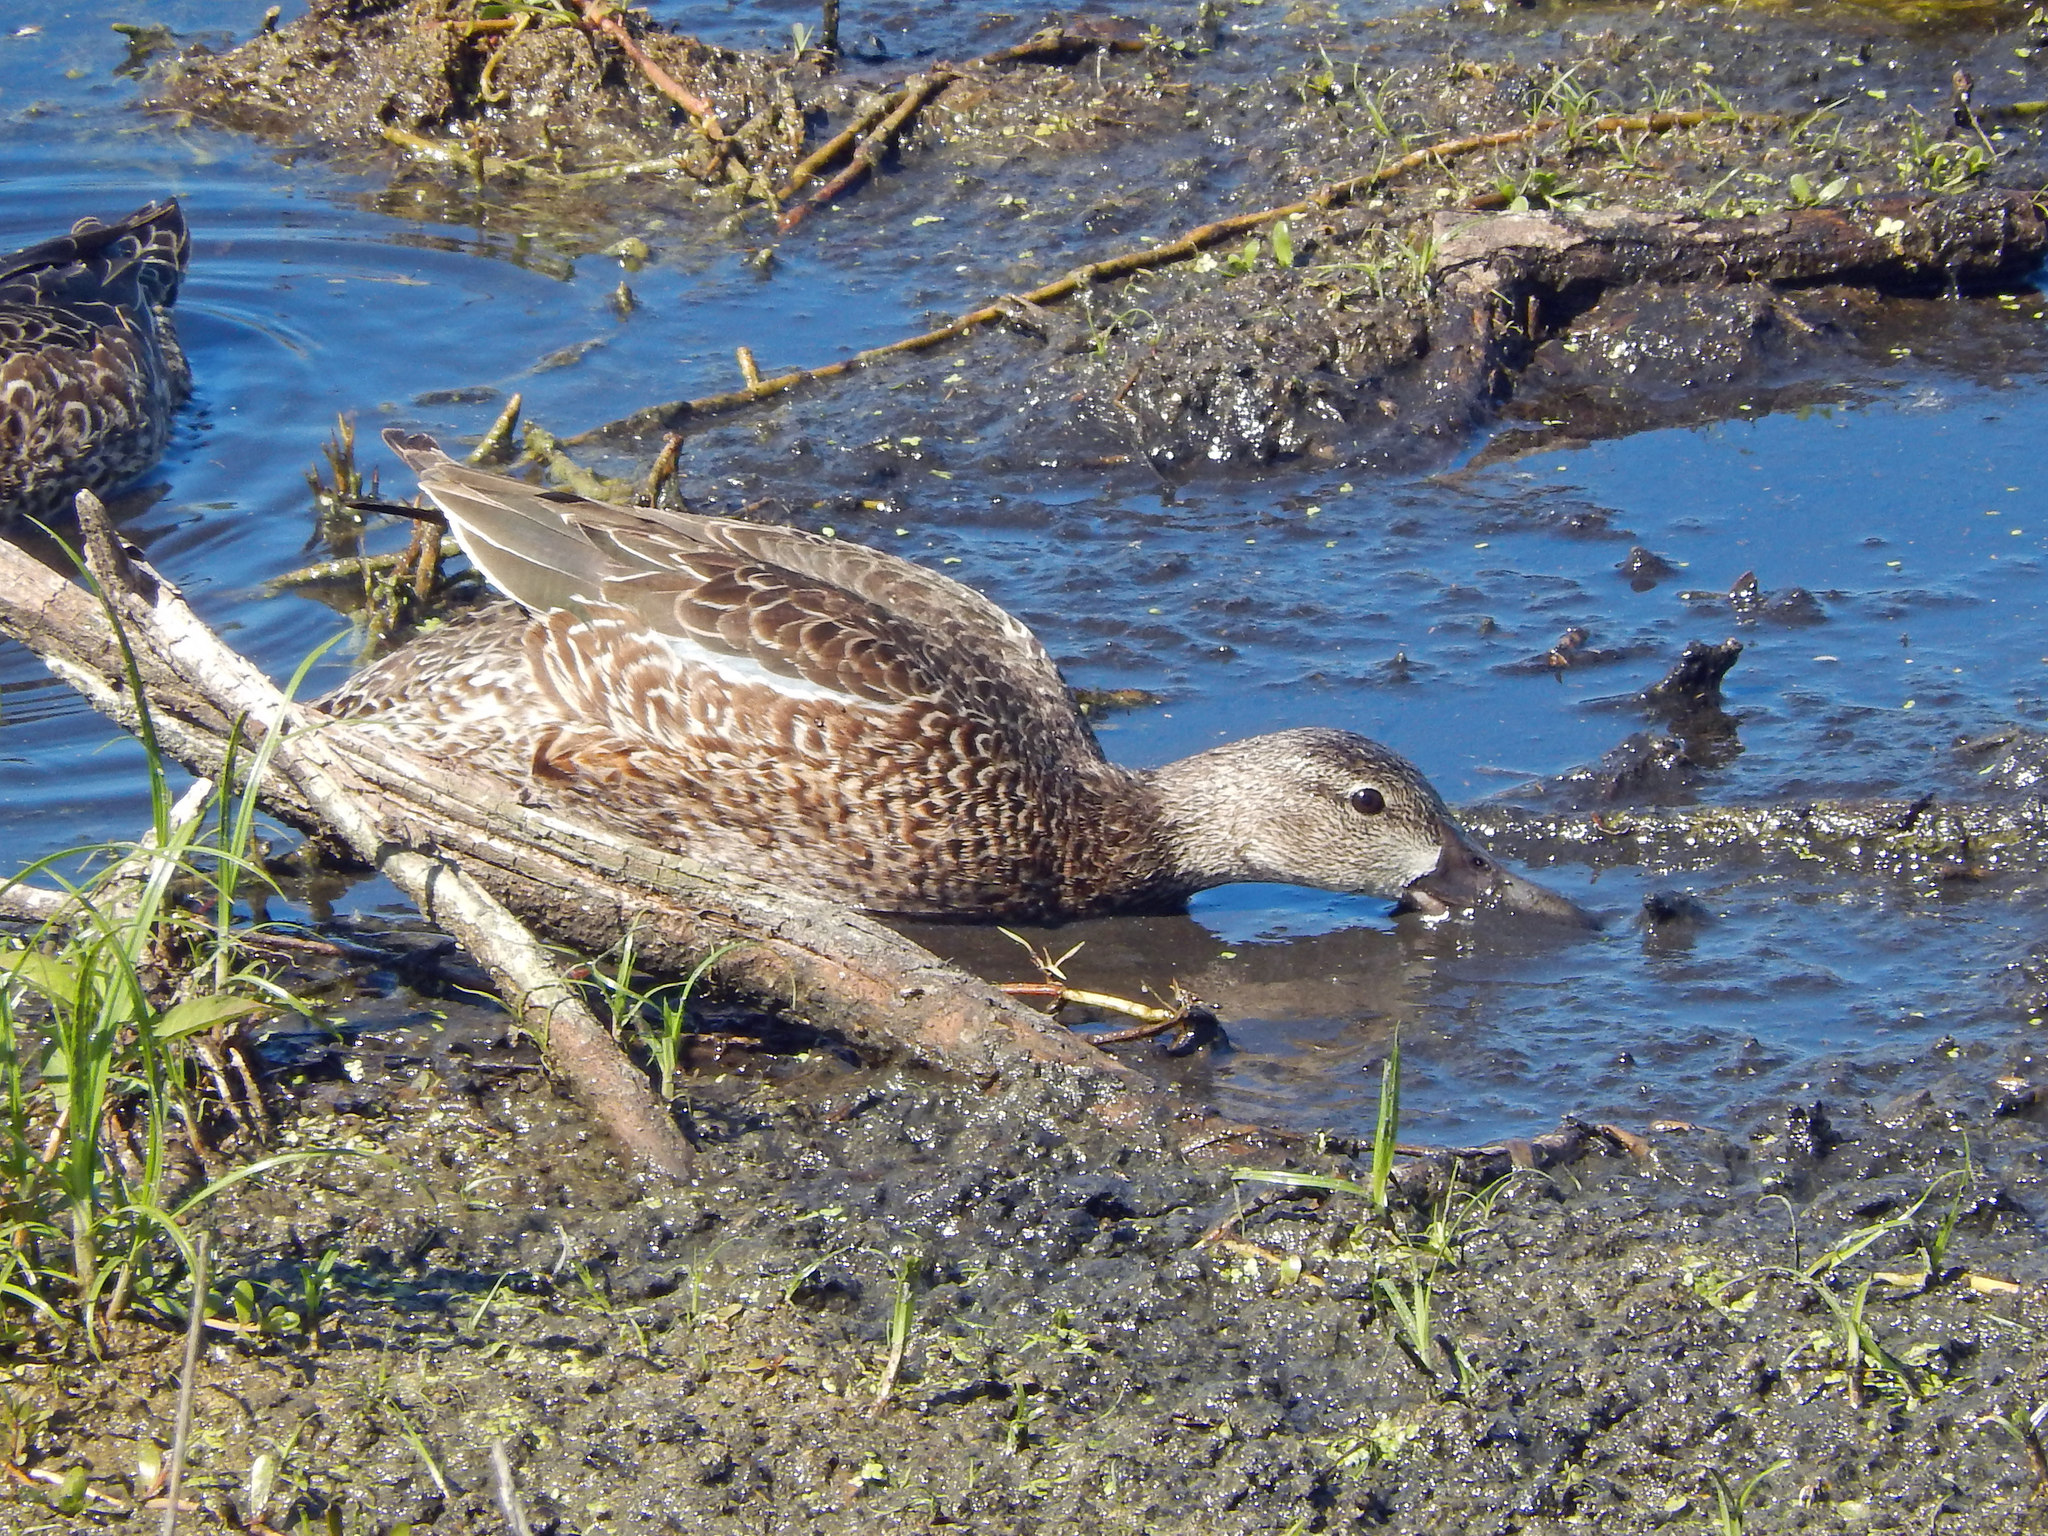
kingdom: Animalia
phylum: Chordata
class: Aves
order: Anseriformes
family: Anatidae
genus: Spatula
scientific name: Spatula discors
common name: Blue-winged teal
